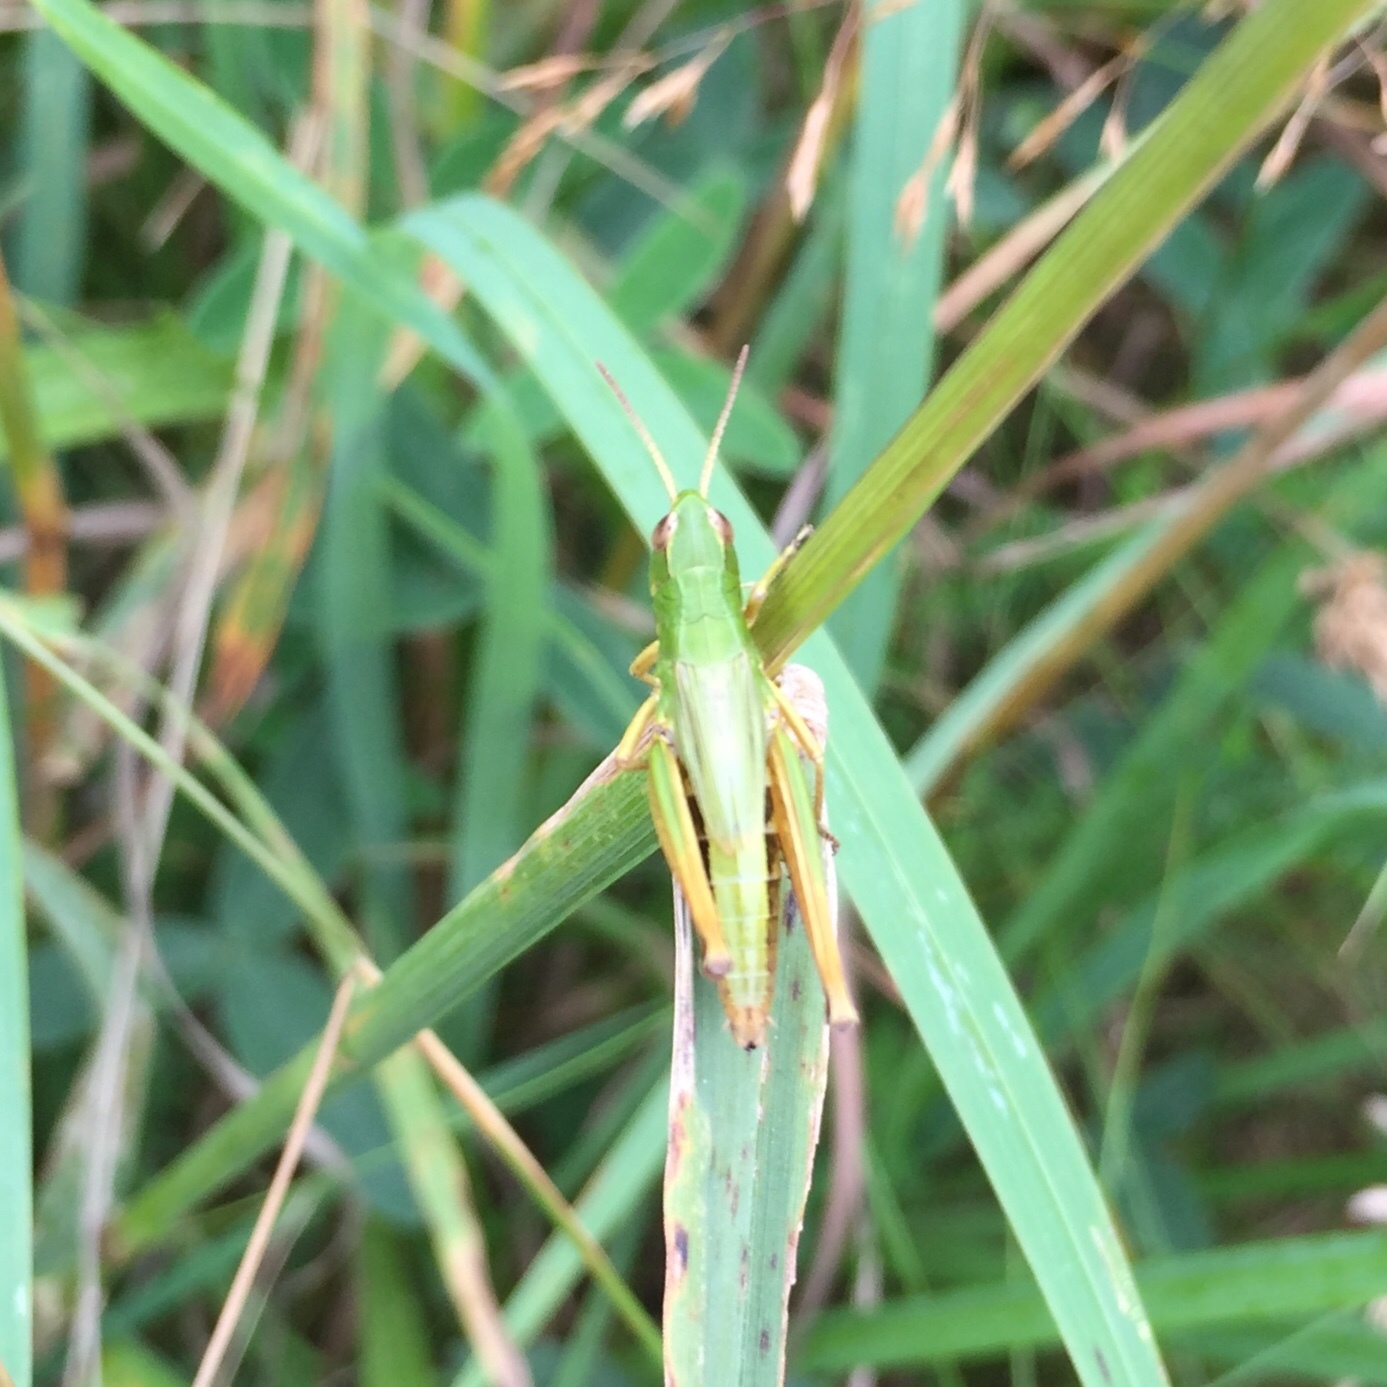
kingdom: Animalia
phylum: Arthropoda
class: Insecta
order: Orthoptera
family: Acrididae
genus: Pseudochorthippus
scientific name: Pseudochorthippus parallelus
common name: Meadow grasshopper
